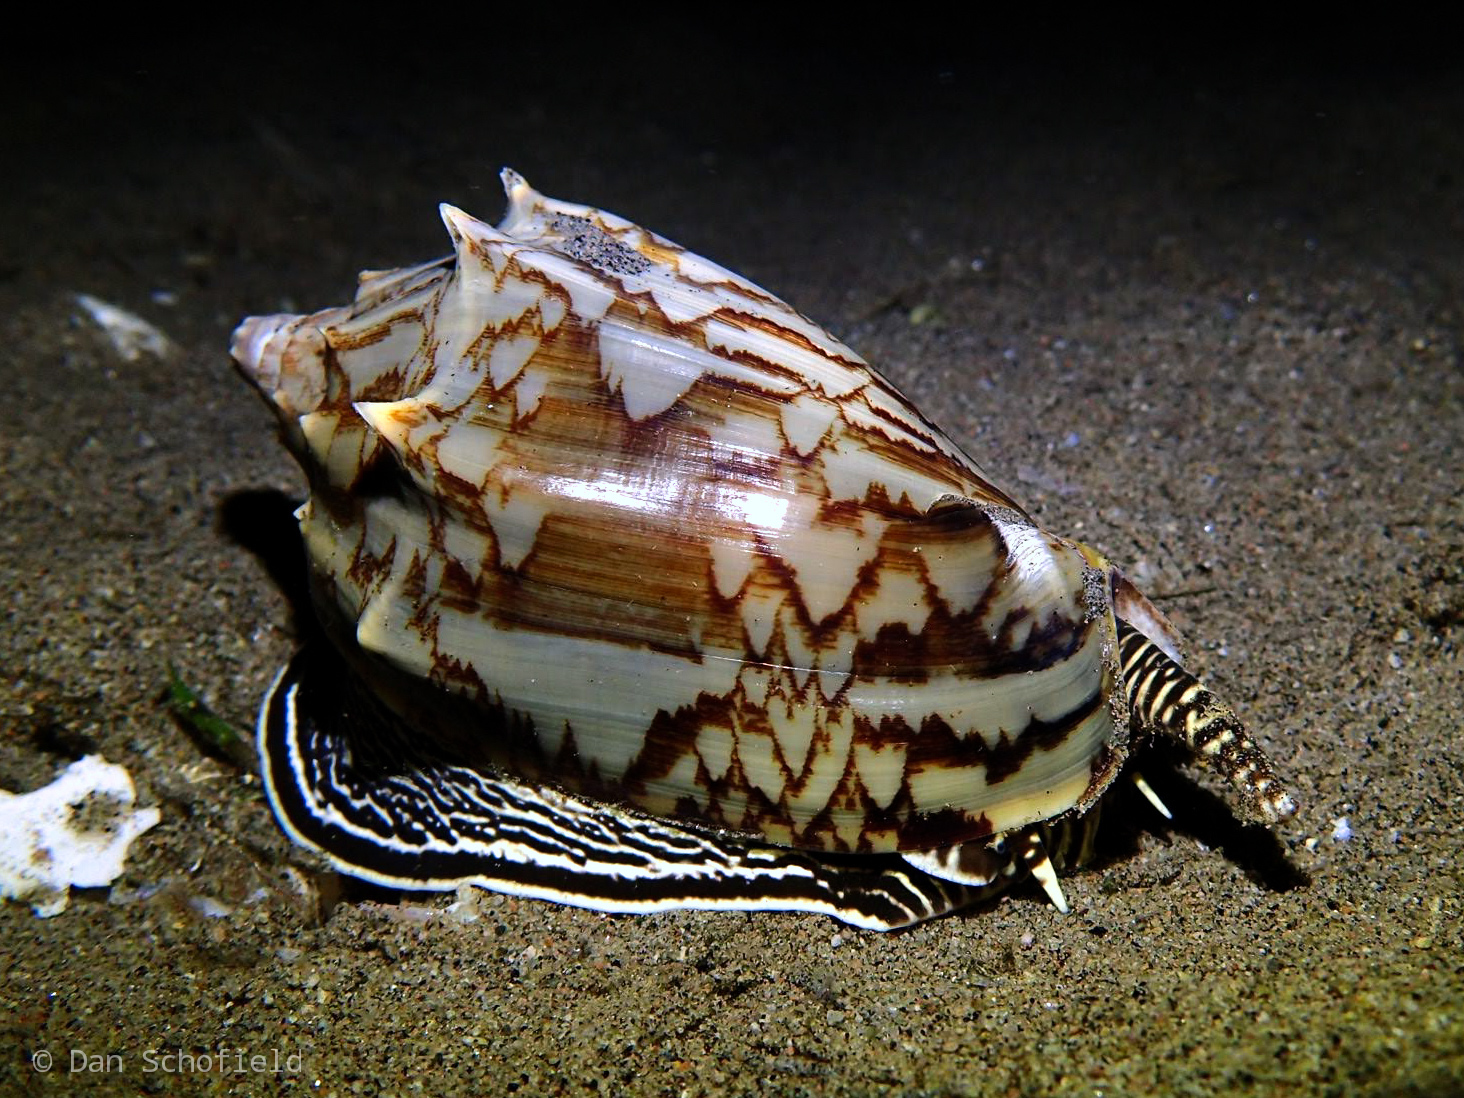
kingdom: Animalia
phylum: Mollusca
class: Gastropoda
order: Neogastropoda
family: Volutidae
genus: Cymbiola
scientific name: Cymbiola vespertilio
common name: Bat volute
